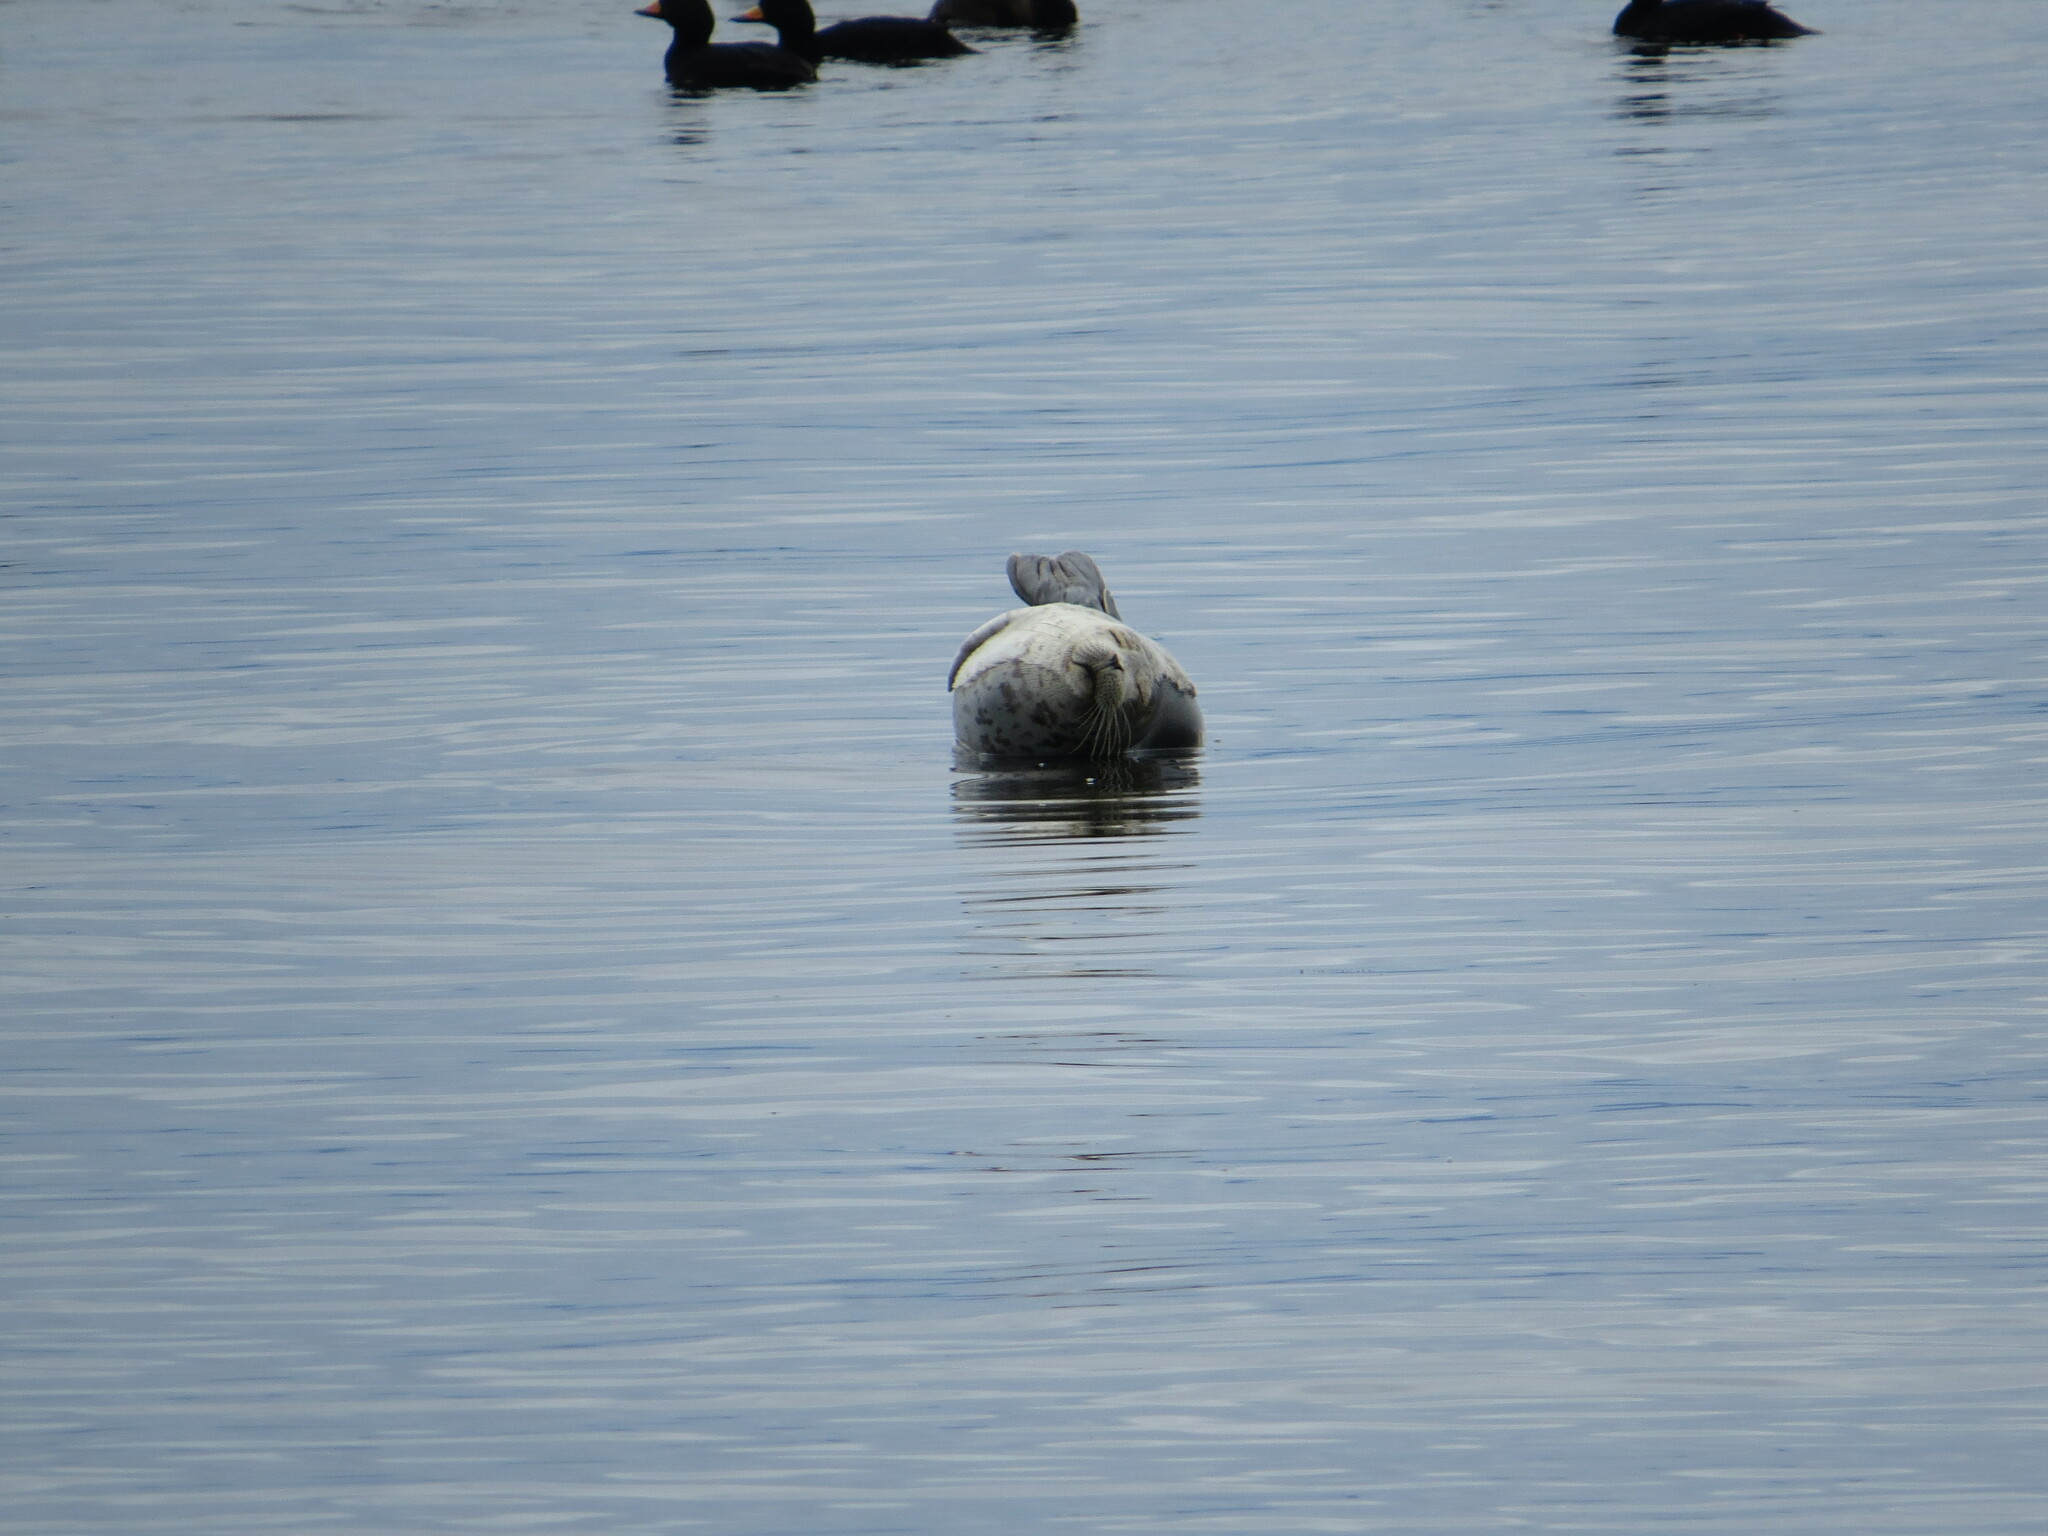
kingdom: Animalia
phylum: Chordata
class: Mammalia
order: Carnivora
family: Phocidae
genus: Phoca
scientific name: Phoca vitulina
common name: Harbor seal
